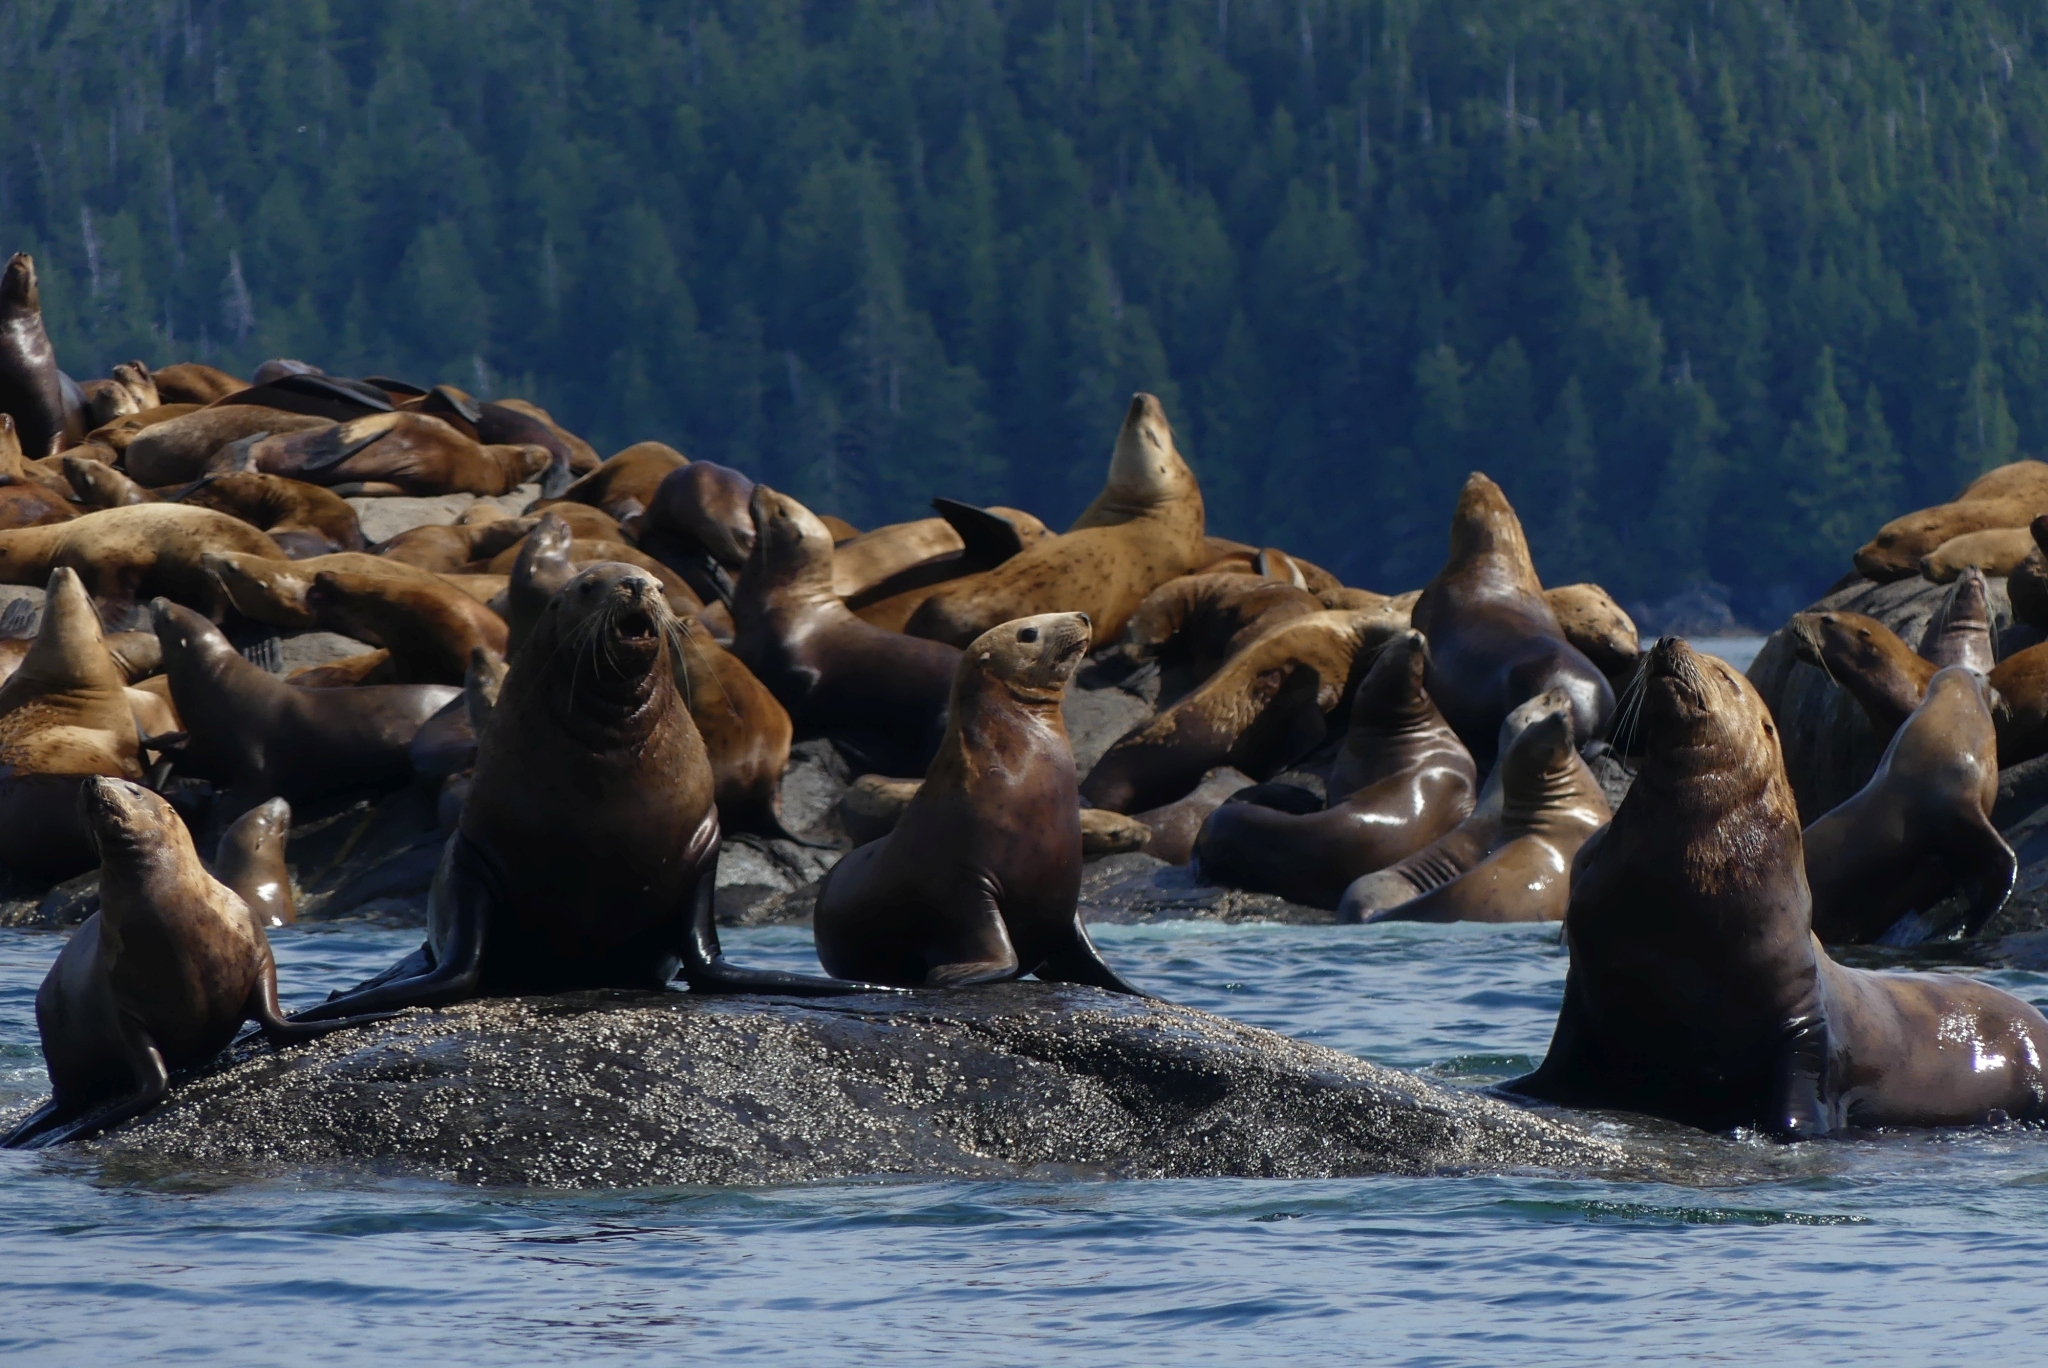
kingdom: Animalia
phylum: Chordata
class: Mammalia
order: Carnivora
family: Otariidae
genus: Eumetopias
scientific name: Eumetopias jubatus
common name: Steller sea lion
